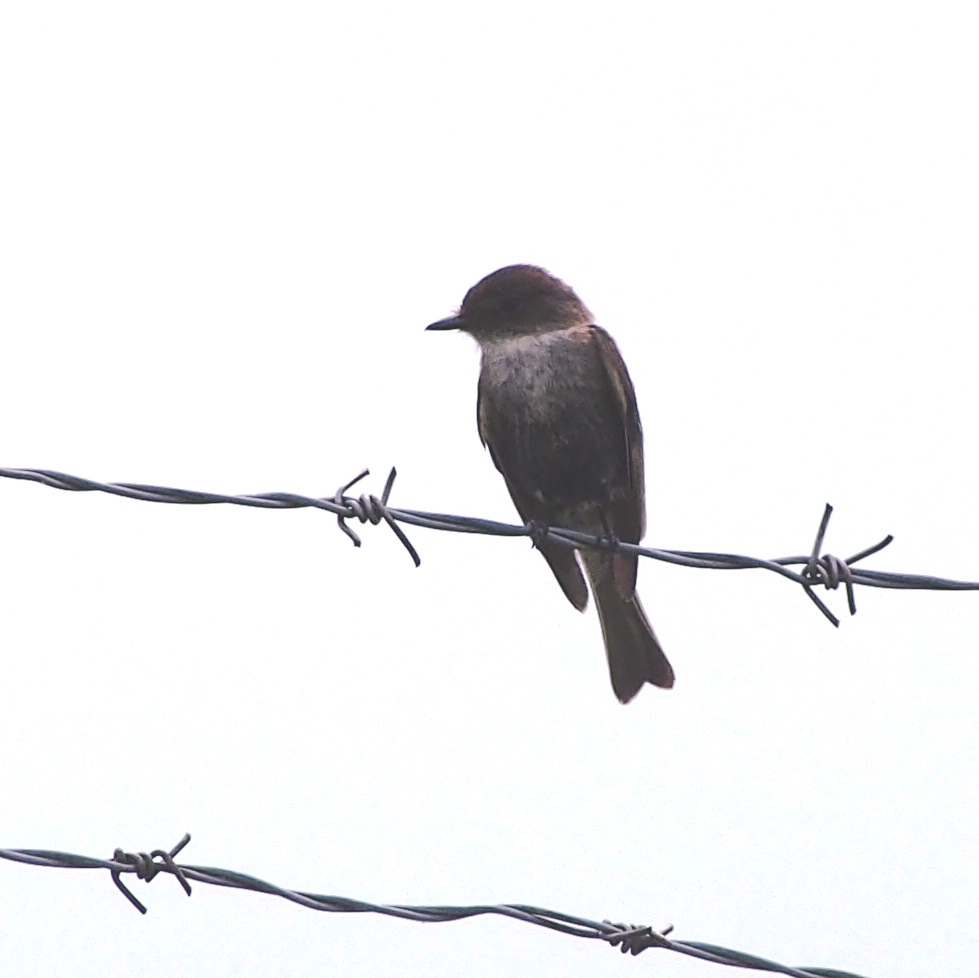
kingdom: Animalia
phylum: Chordata
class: Aves
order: Passeriformes
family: Tyrannidae
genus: Sayornis
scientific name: Sayornis phoebe
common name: Eastern phoebe
